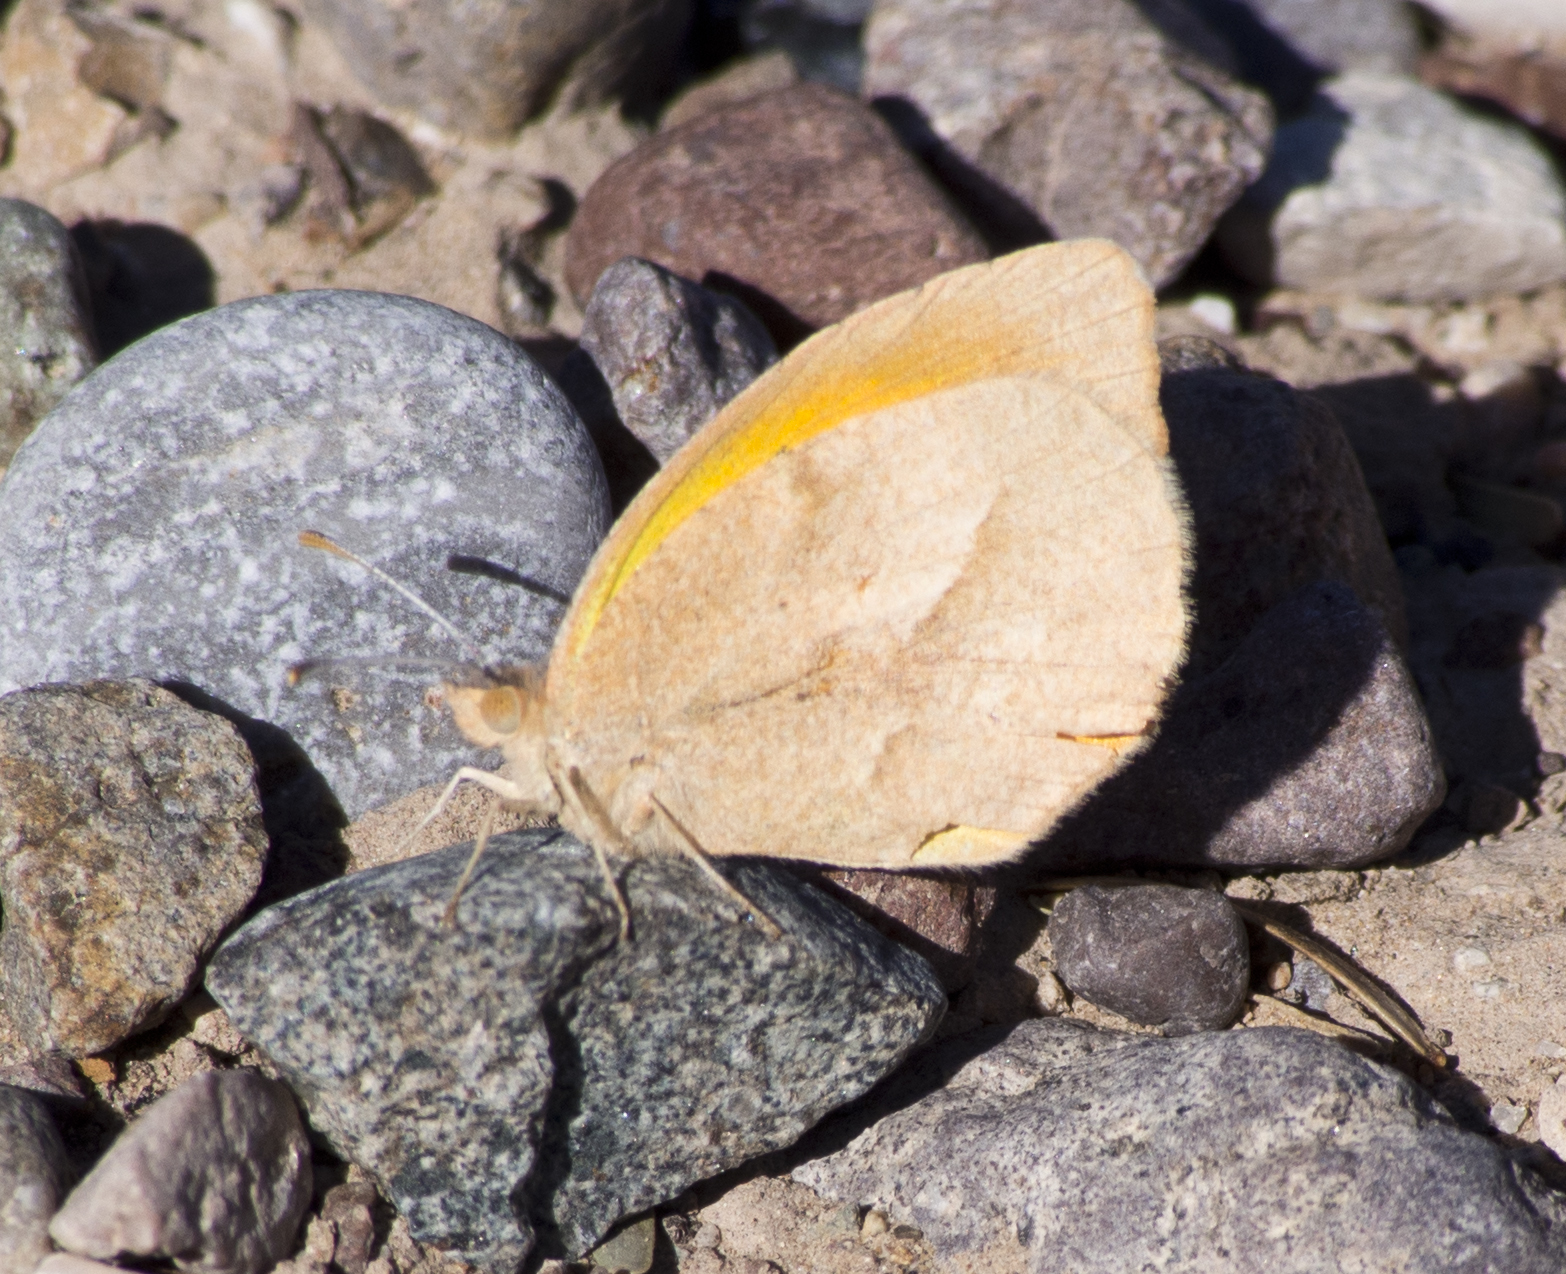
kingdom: Animalia
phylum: Arthropoda
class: Insecta
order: Lepidoptera
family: Pieridae
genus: Abaeis
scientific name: Abaeis nicippe
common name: Sleepy orange
